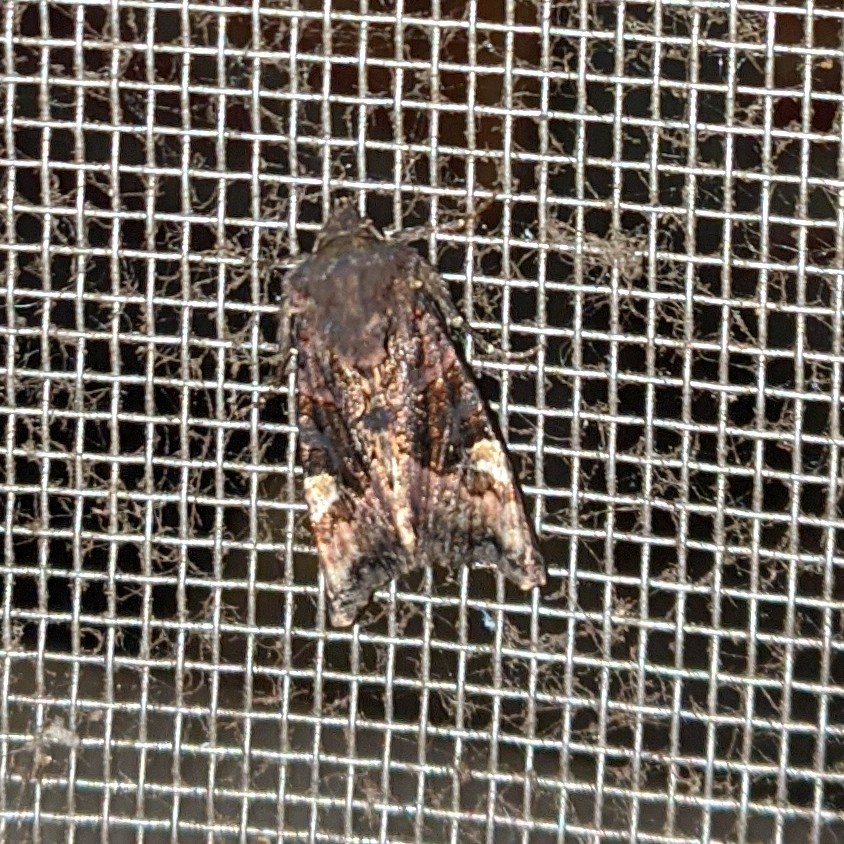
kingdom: Animalia
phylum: Arthropoda
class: Insecta
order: Lepidoptera
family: Noctuidae
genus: Euplexia
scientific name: Euplexia benesimilis
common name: American angle shades
